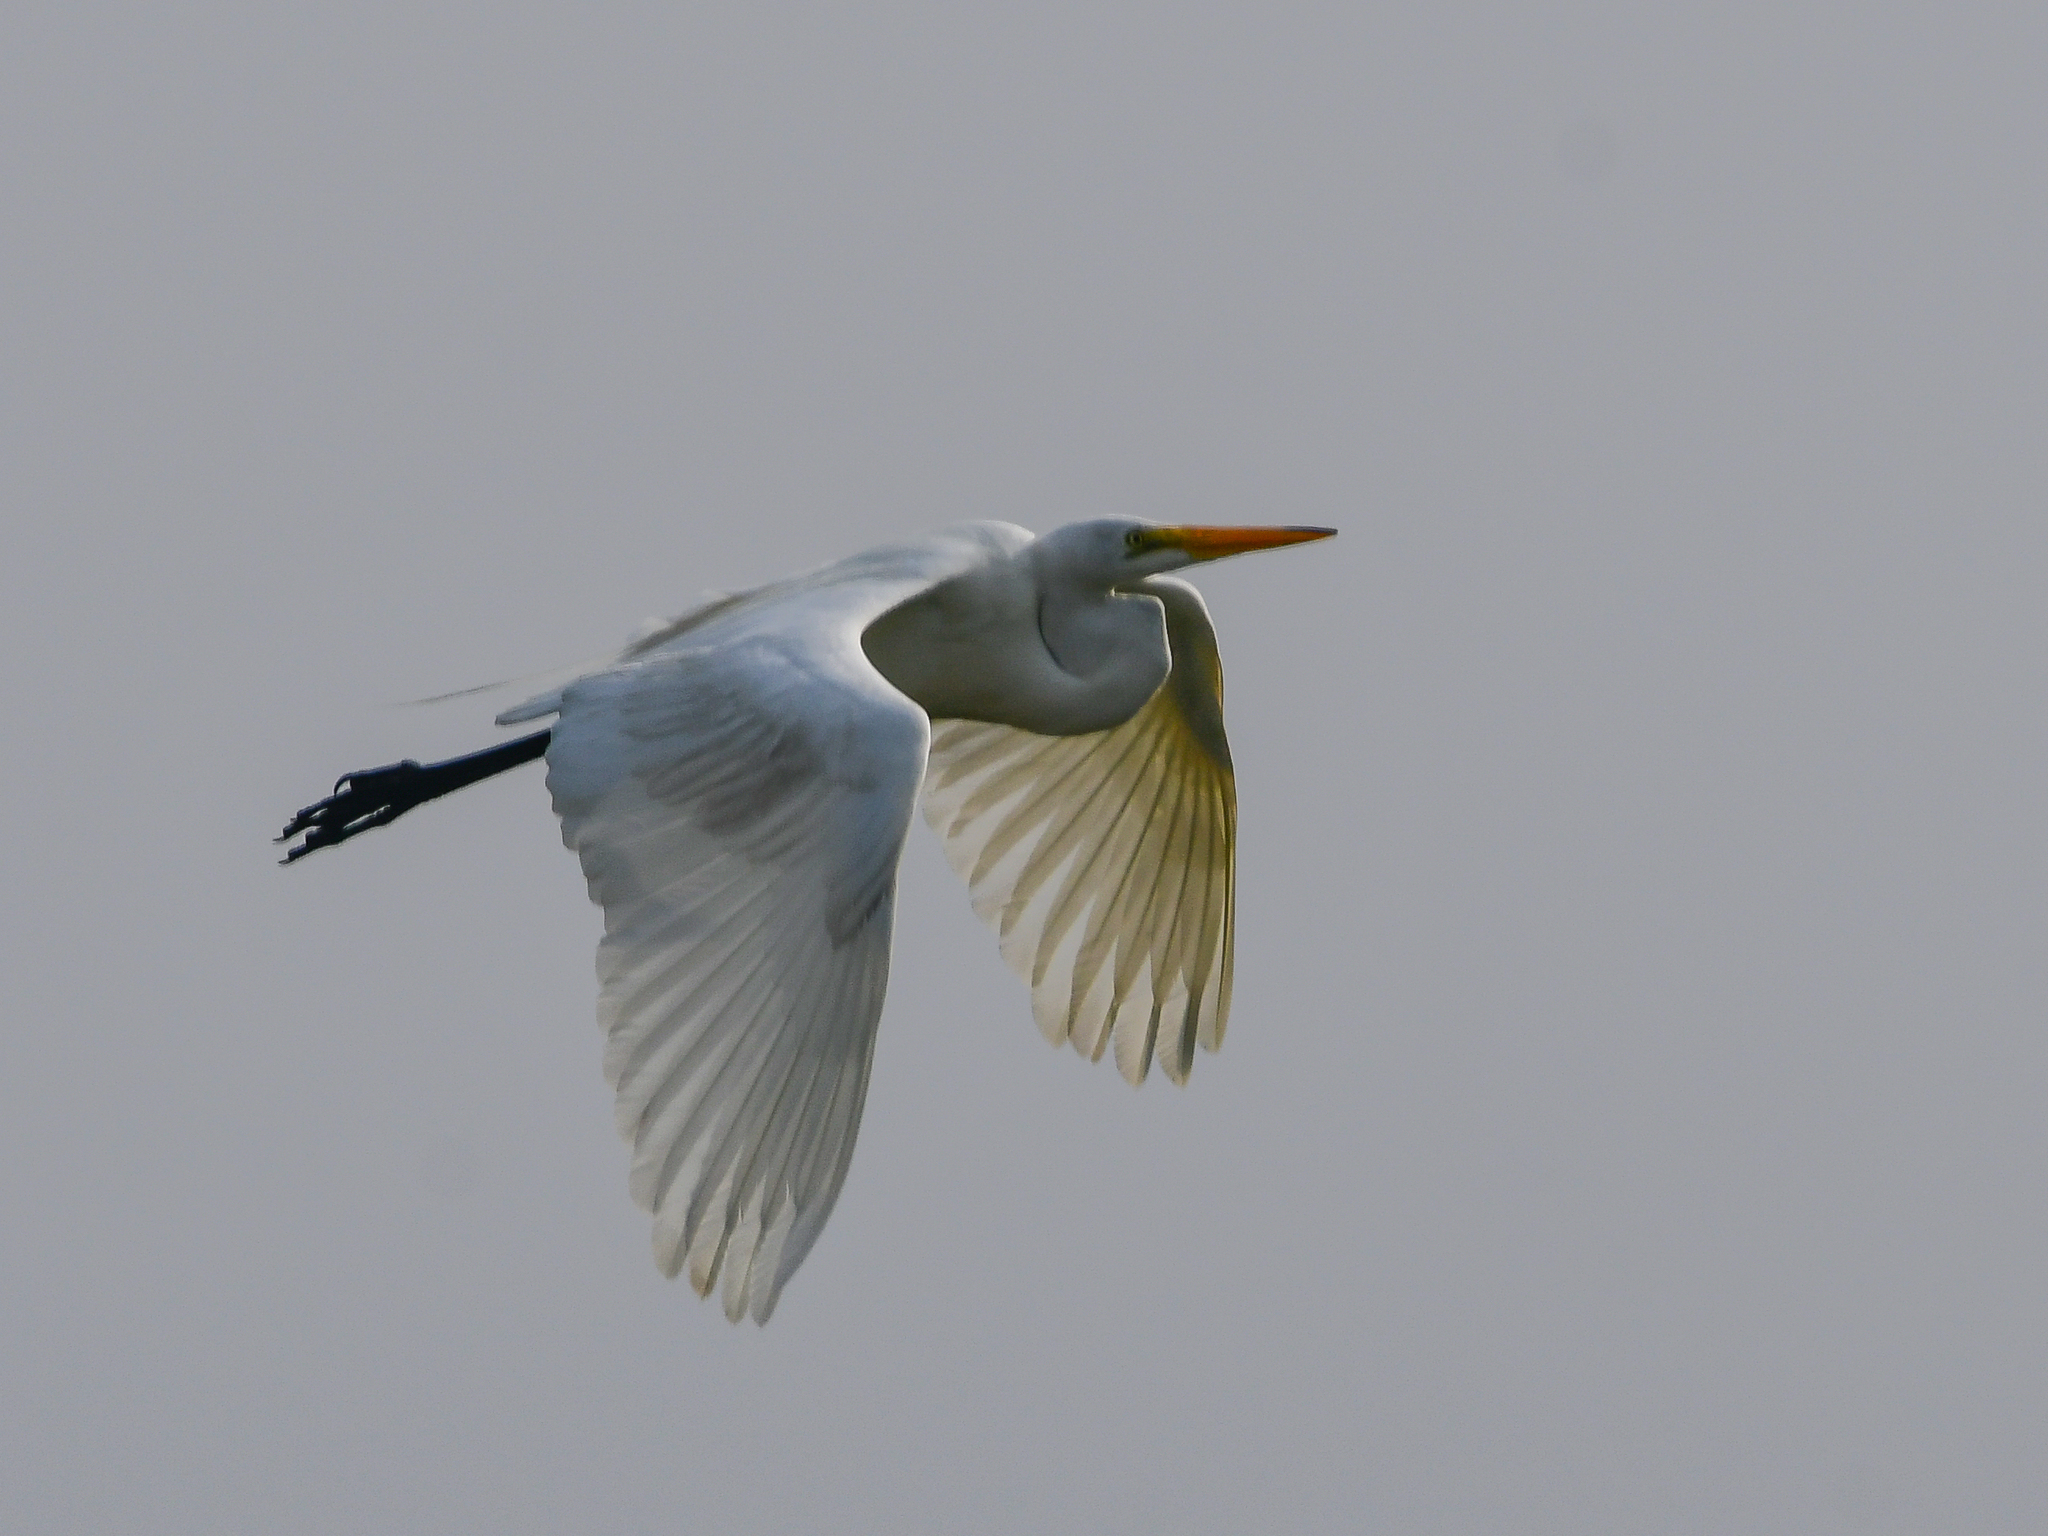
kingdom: Animalia
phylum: Chordata
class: Aves
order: Pelecaniformes
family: Ardeidae
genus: Ardea
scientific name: Ardea alba
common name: Great egret
